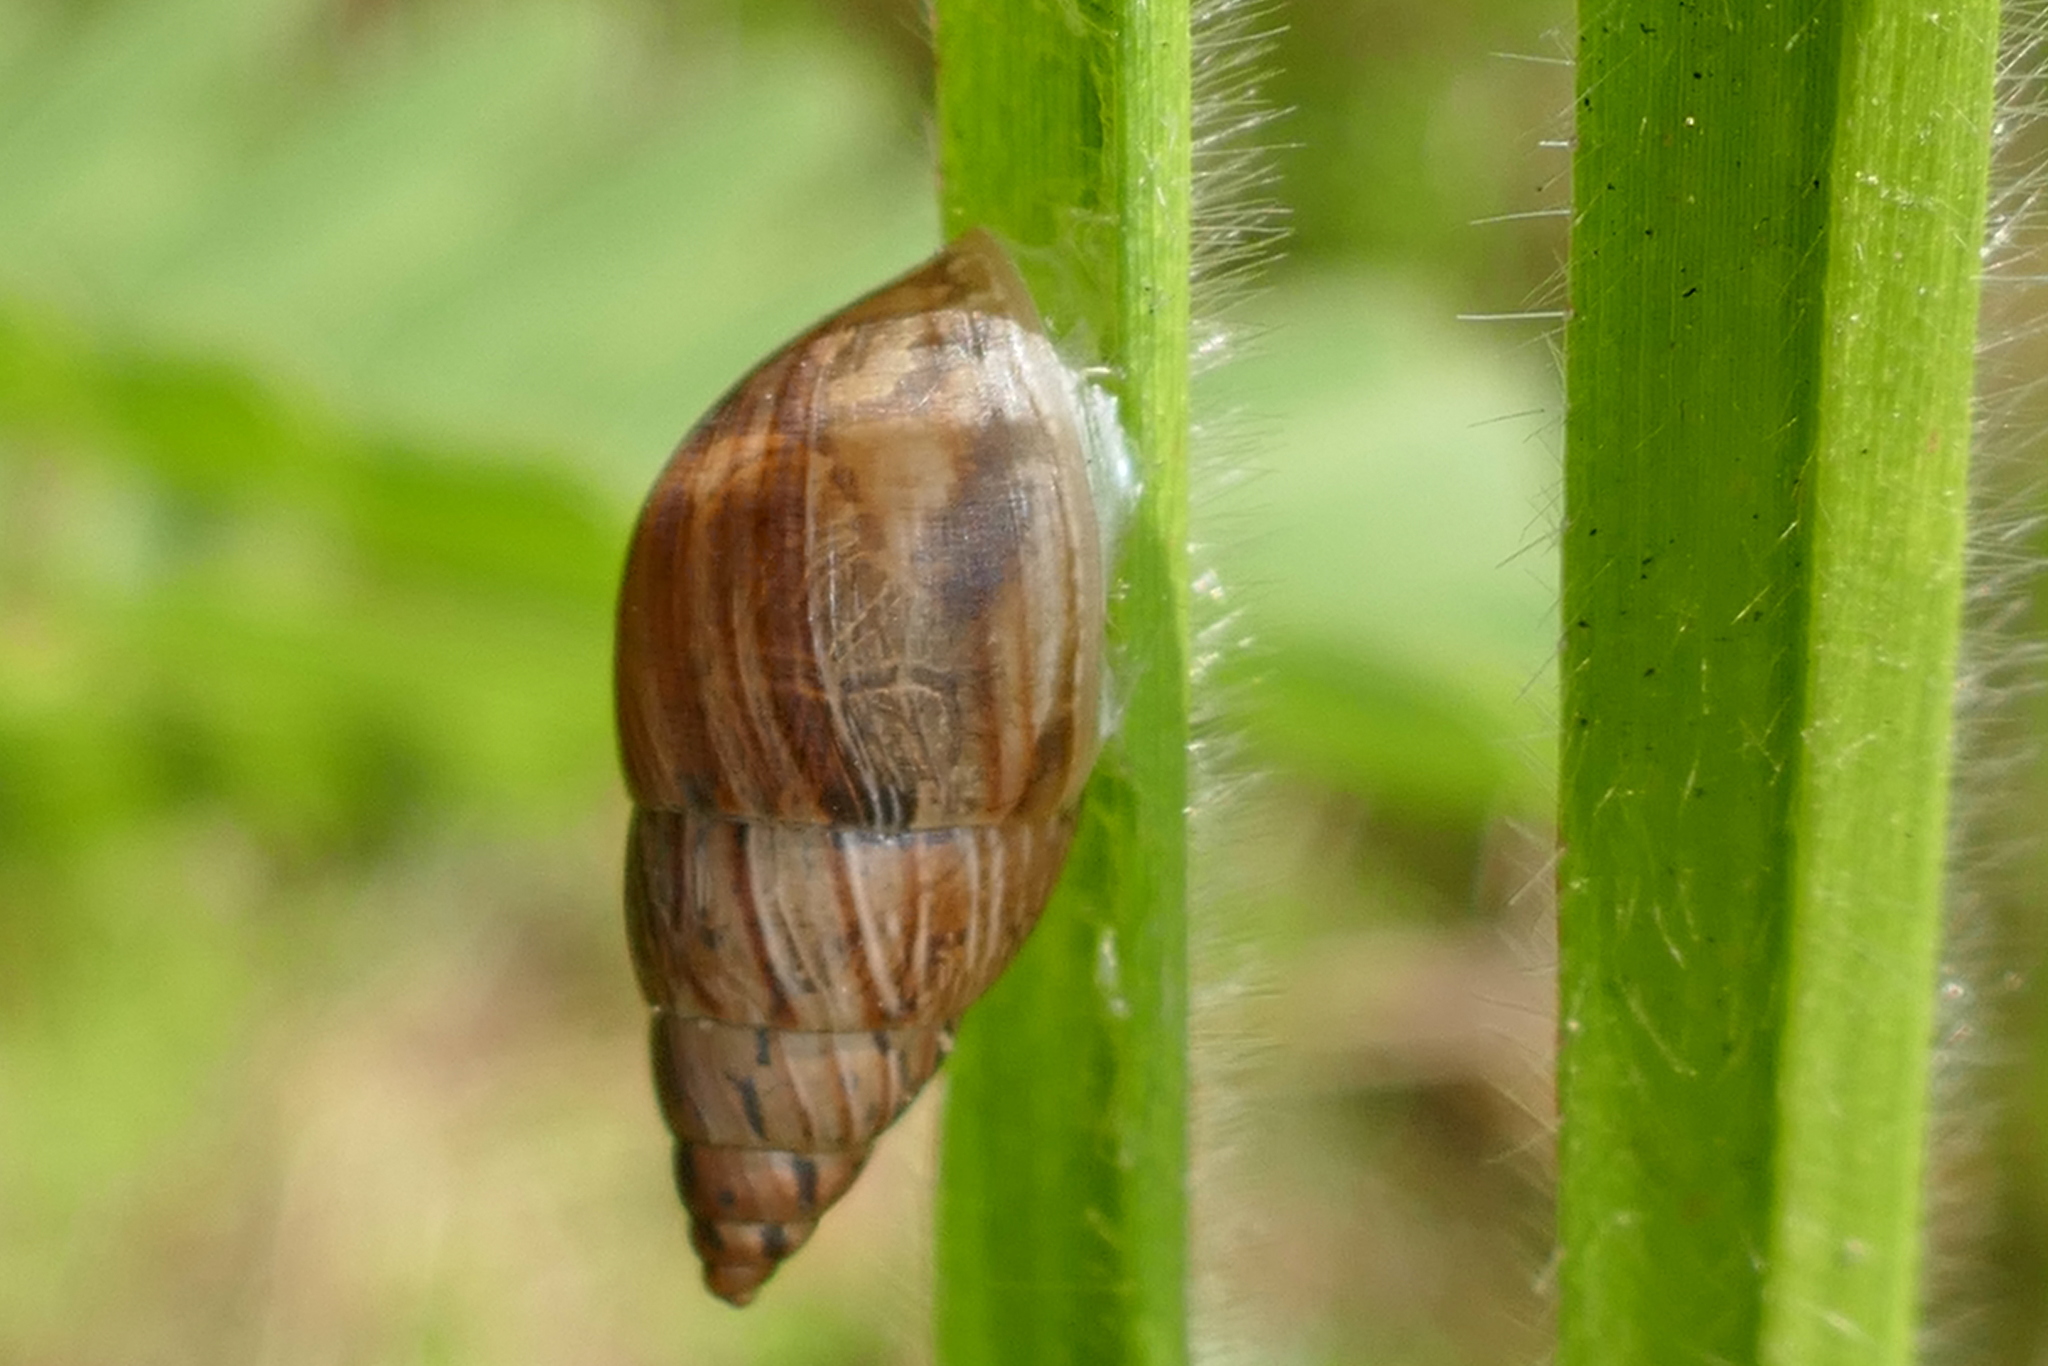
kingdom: Animalia
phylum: Mollusca
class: Gastropoda
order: Stylommatophora
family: Bulimulidae
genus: Bulimulus
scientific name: Bulimulus bonariensis
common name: Snail
